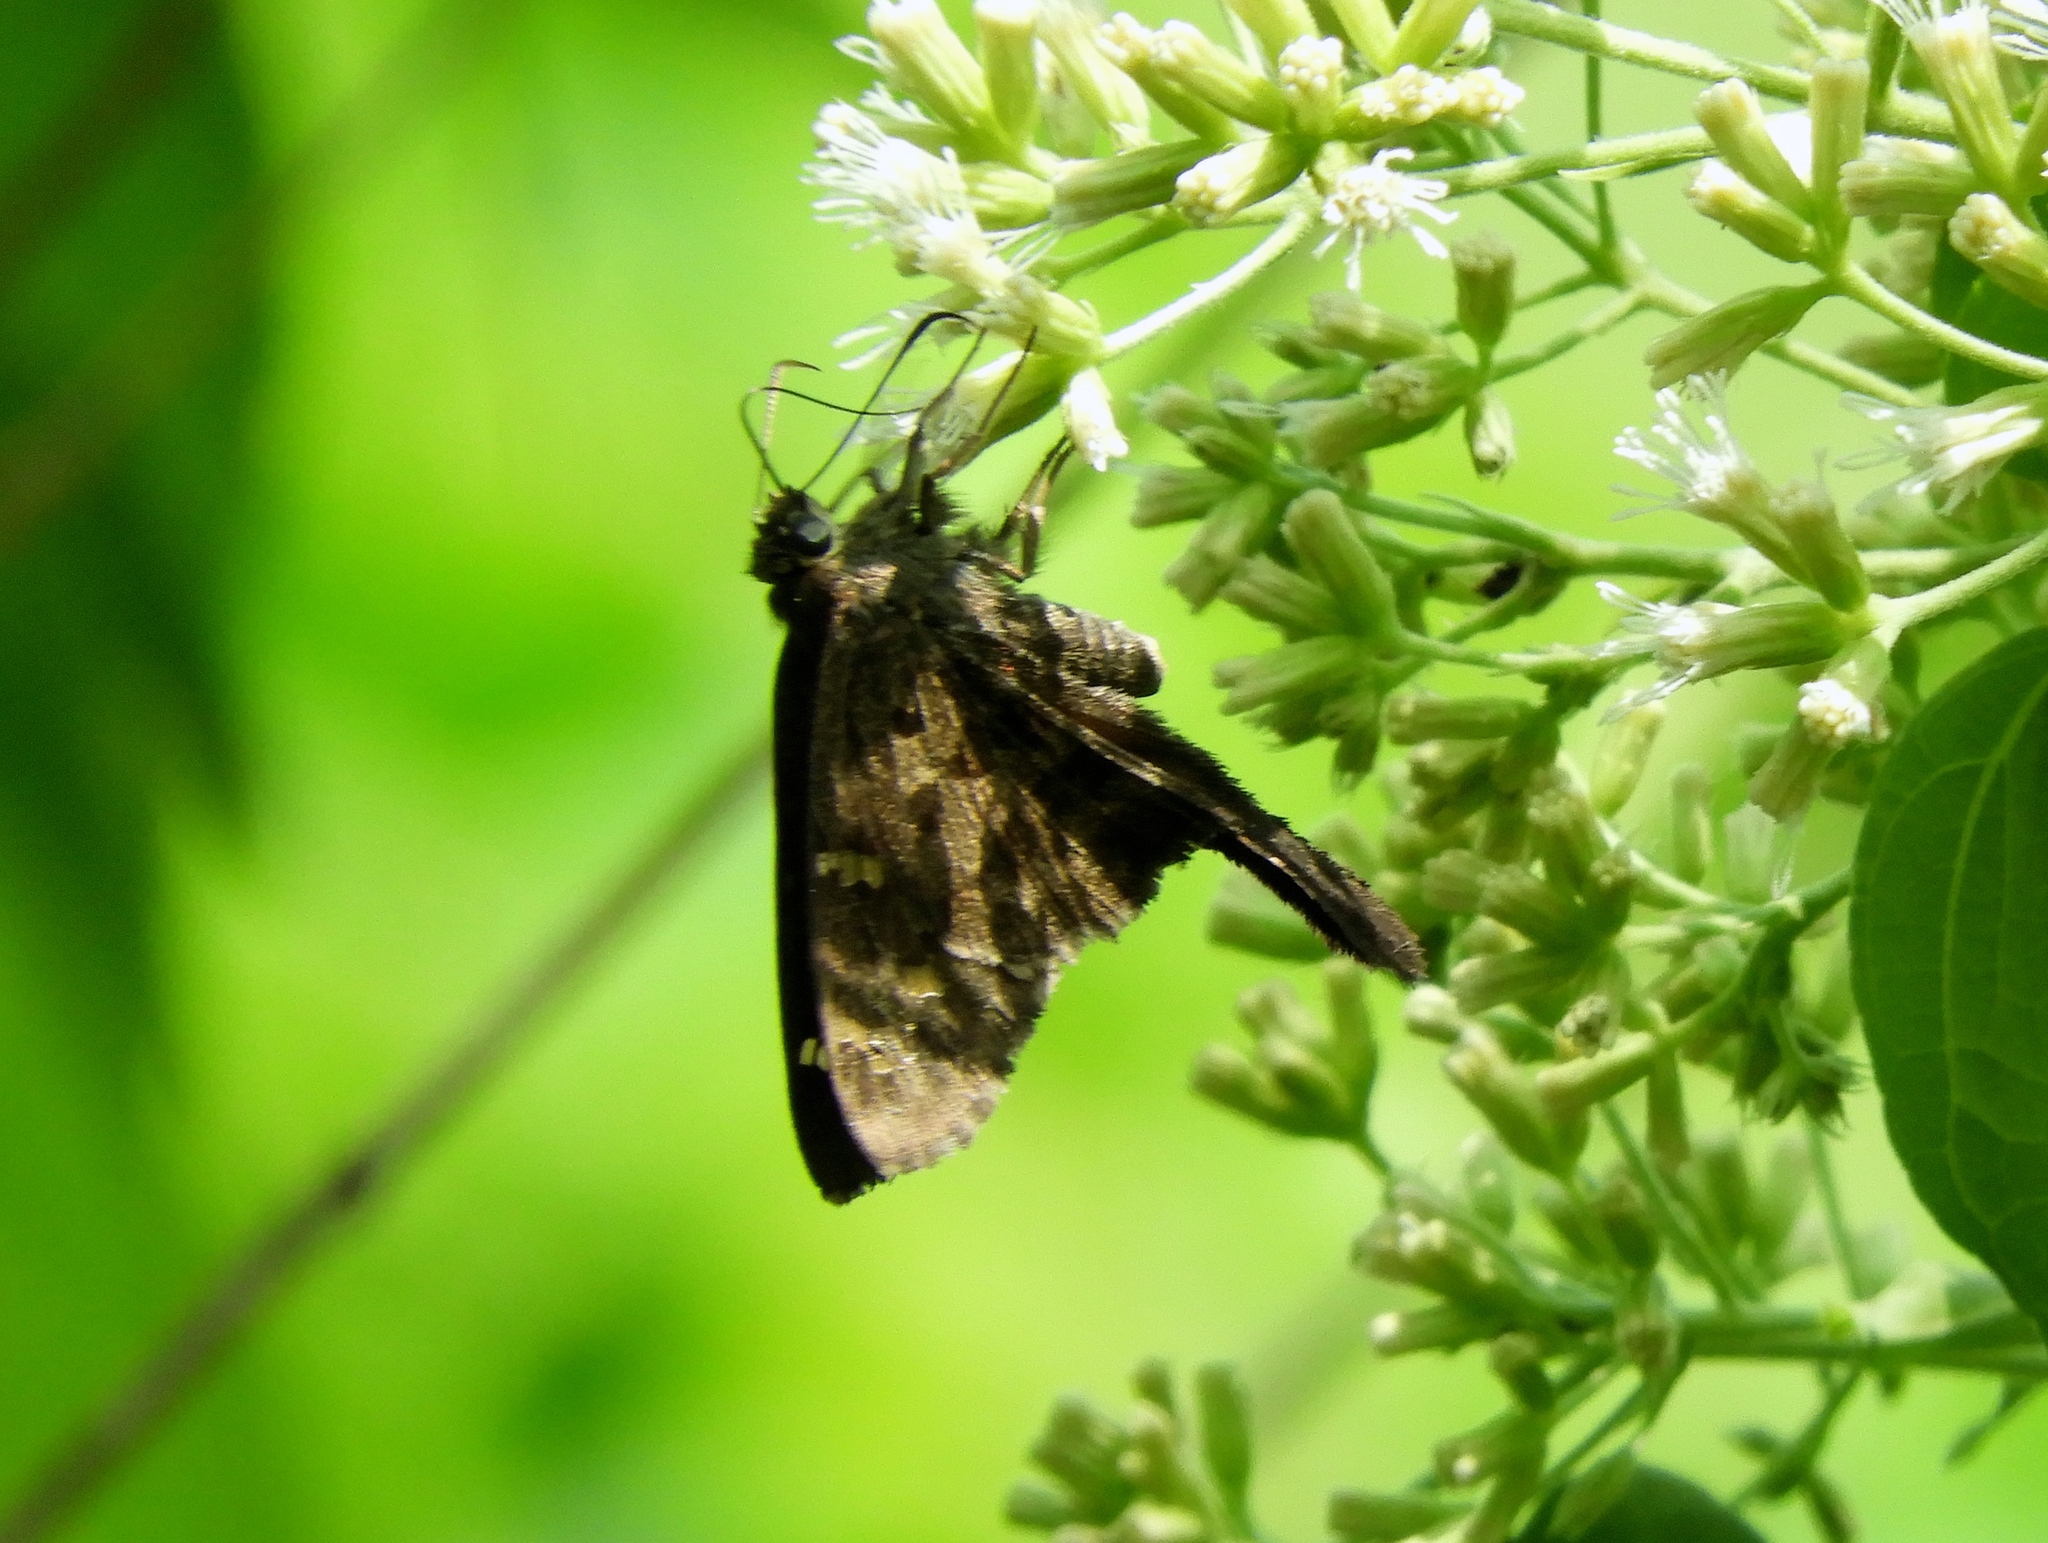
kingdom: Animalia
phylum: Arthropoda
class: Insecta
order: Lepidoptera
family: Hesperiidae
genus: Thorybes
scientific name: Thorybes
